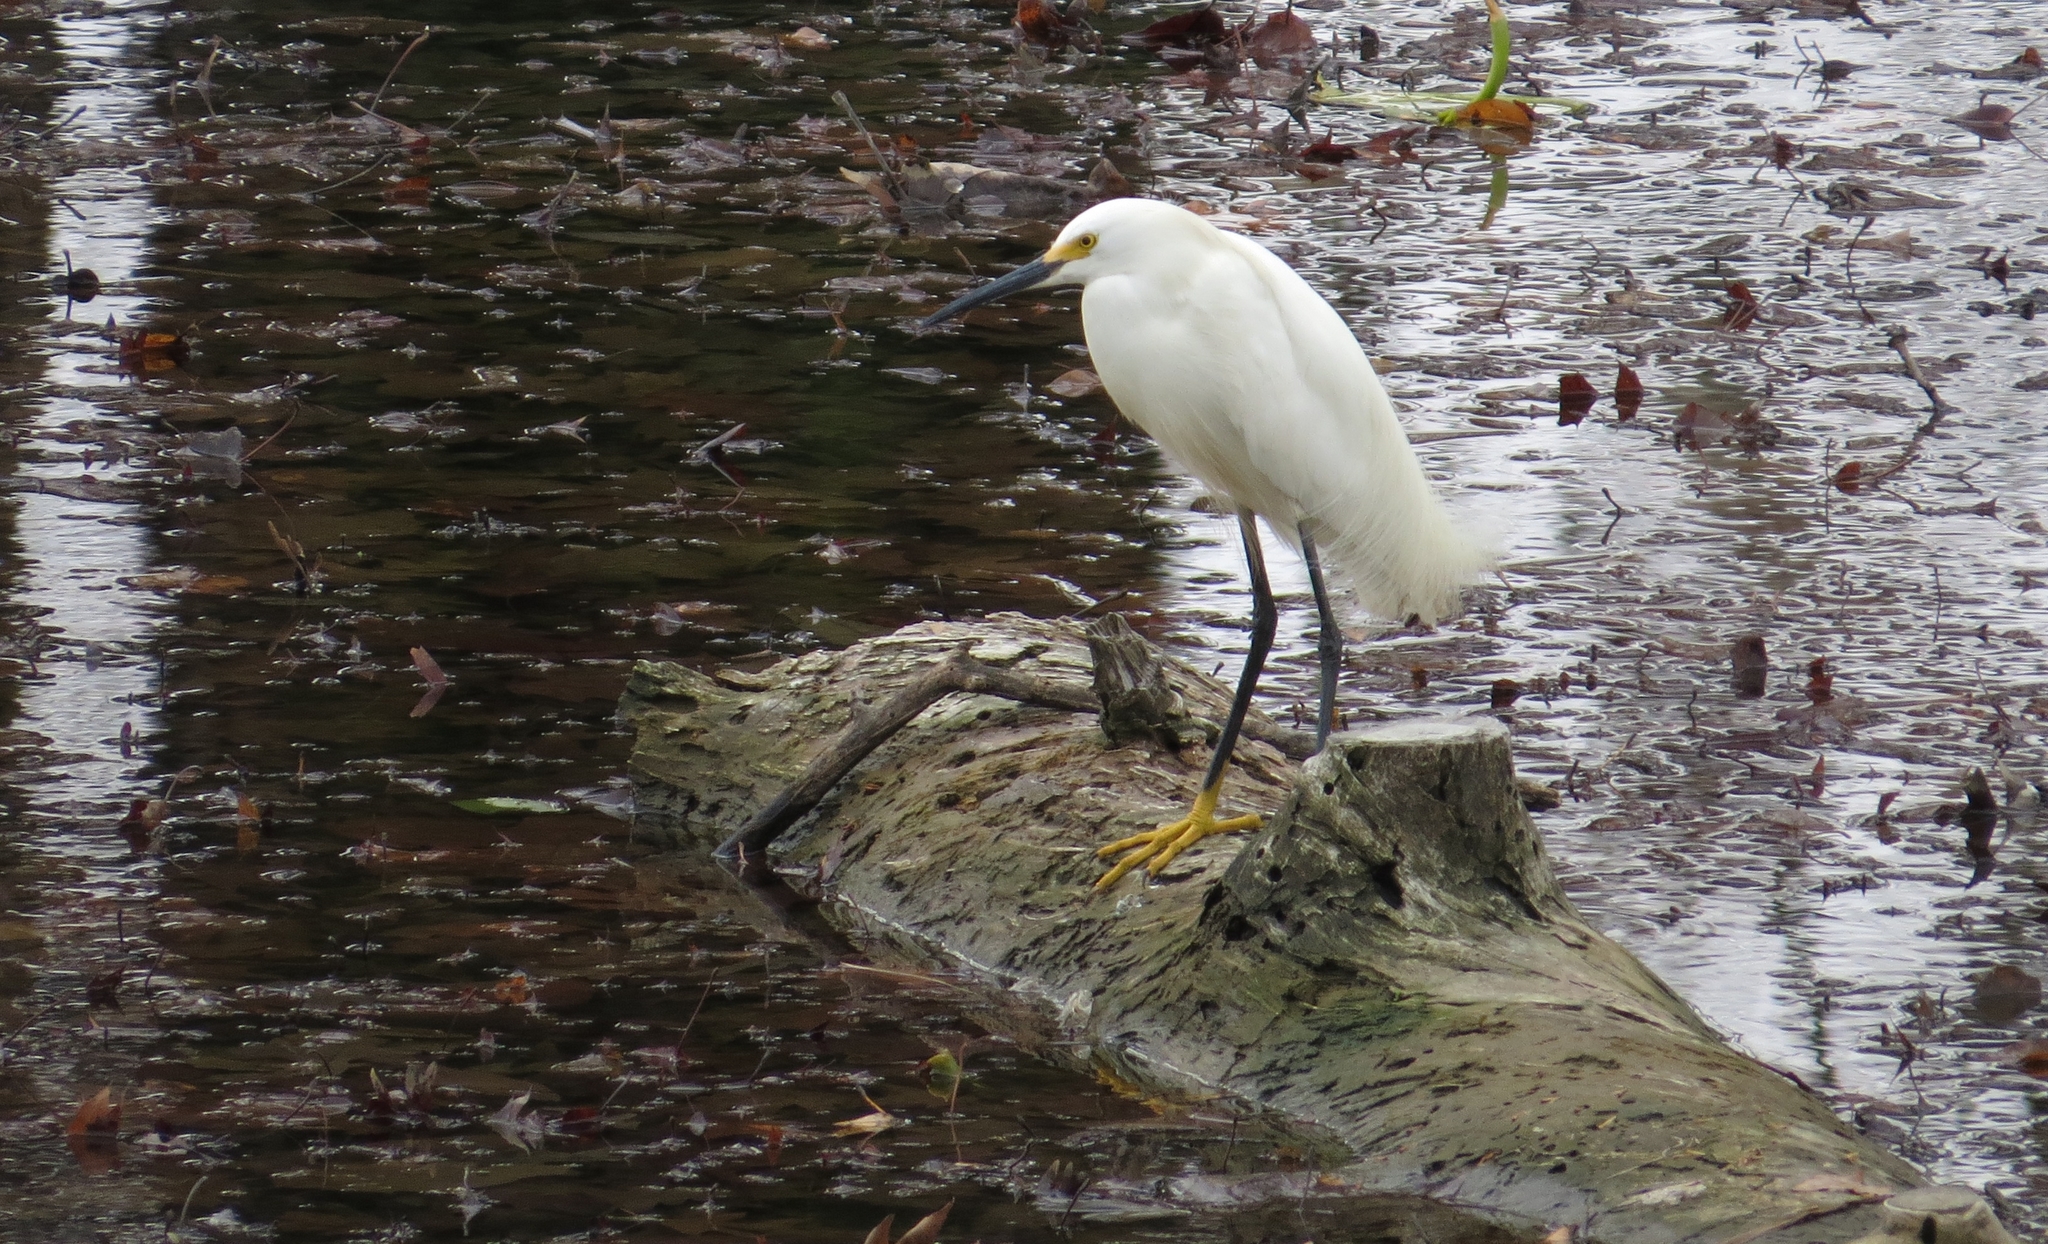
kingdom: Animalia
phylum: Chordata
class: Aves
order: Pelecaniformes
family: Ardeidae
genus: Egretta
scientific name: Egretta thula
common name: Snowy egret
